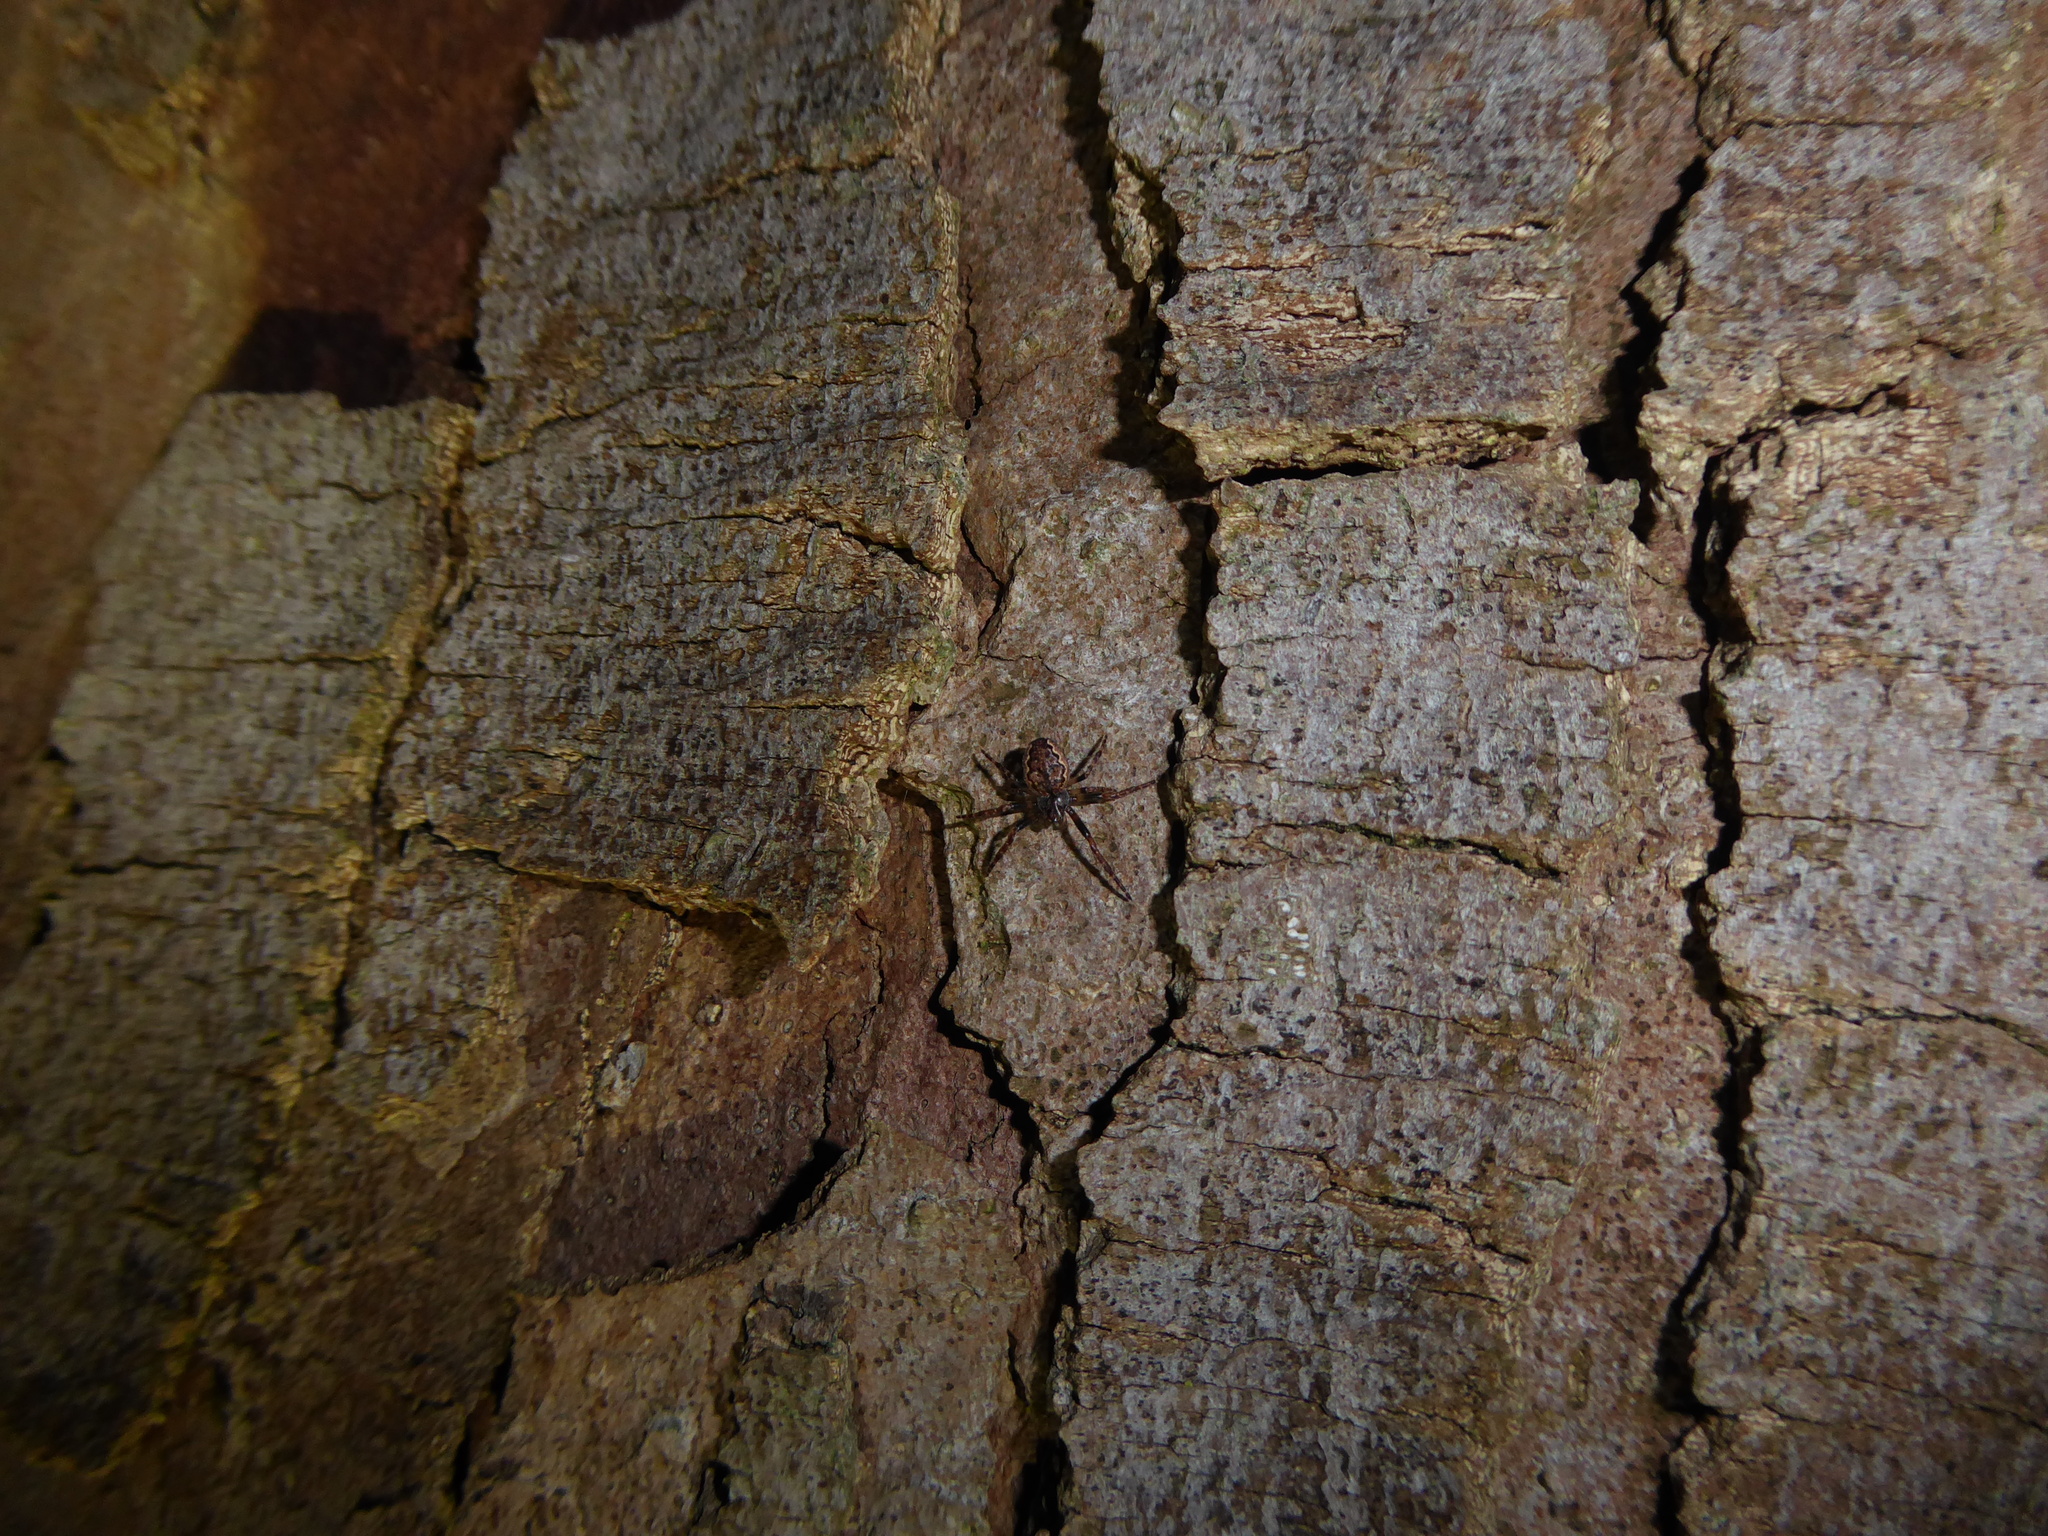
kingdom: Animalia
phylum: Arthropoda
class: Arachnida
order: Araneae
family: Araneidae
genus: Nuctenea
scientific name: Nuctenea umbratica
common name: Toad spider
